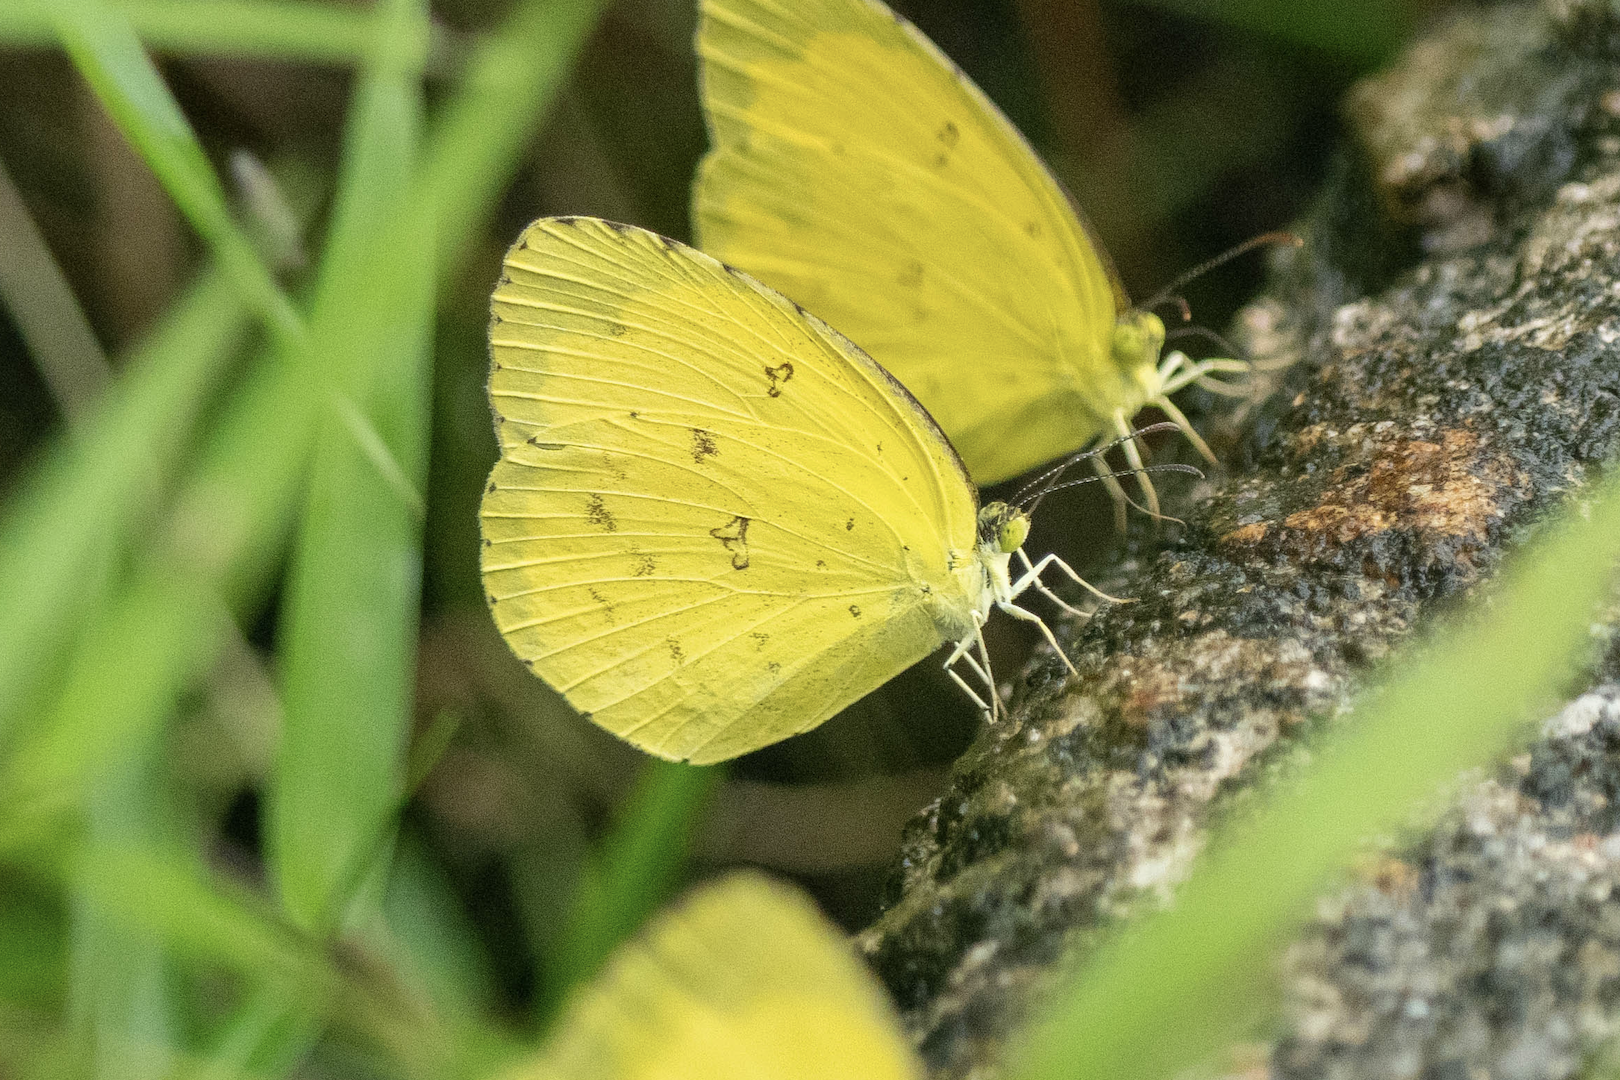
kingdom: Animalia
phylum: Arthropoda
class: Insecta
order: Lepidoptera
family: Pieridae
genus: Eurema
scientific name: Eurema hecabe
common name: Pale grass yellow
